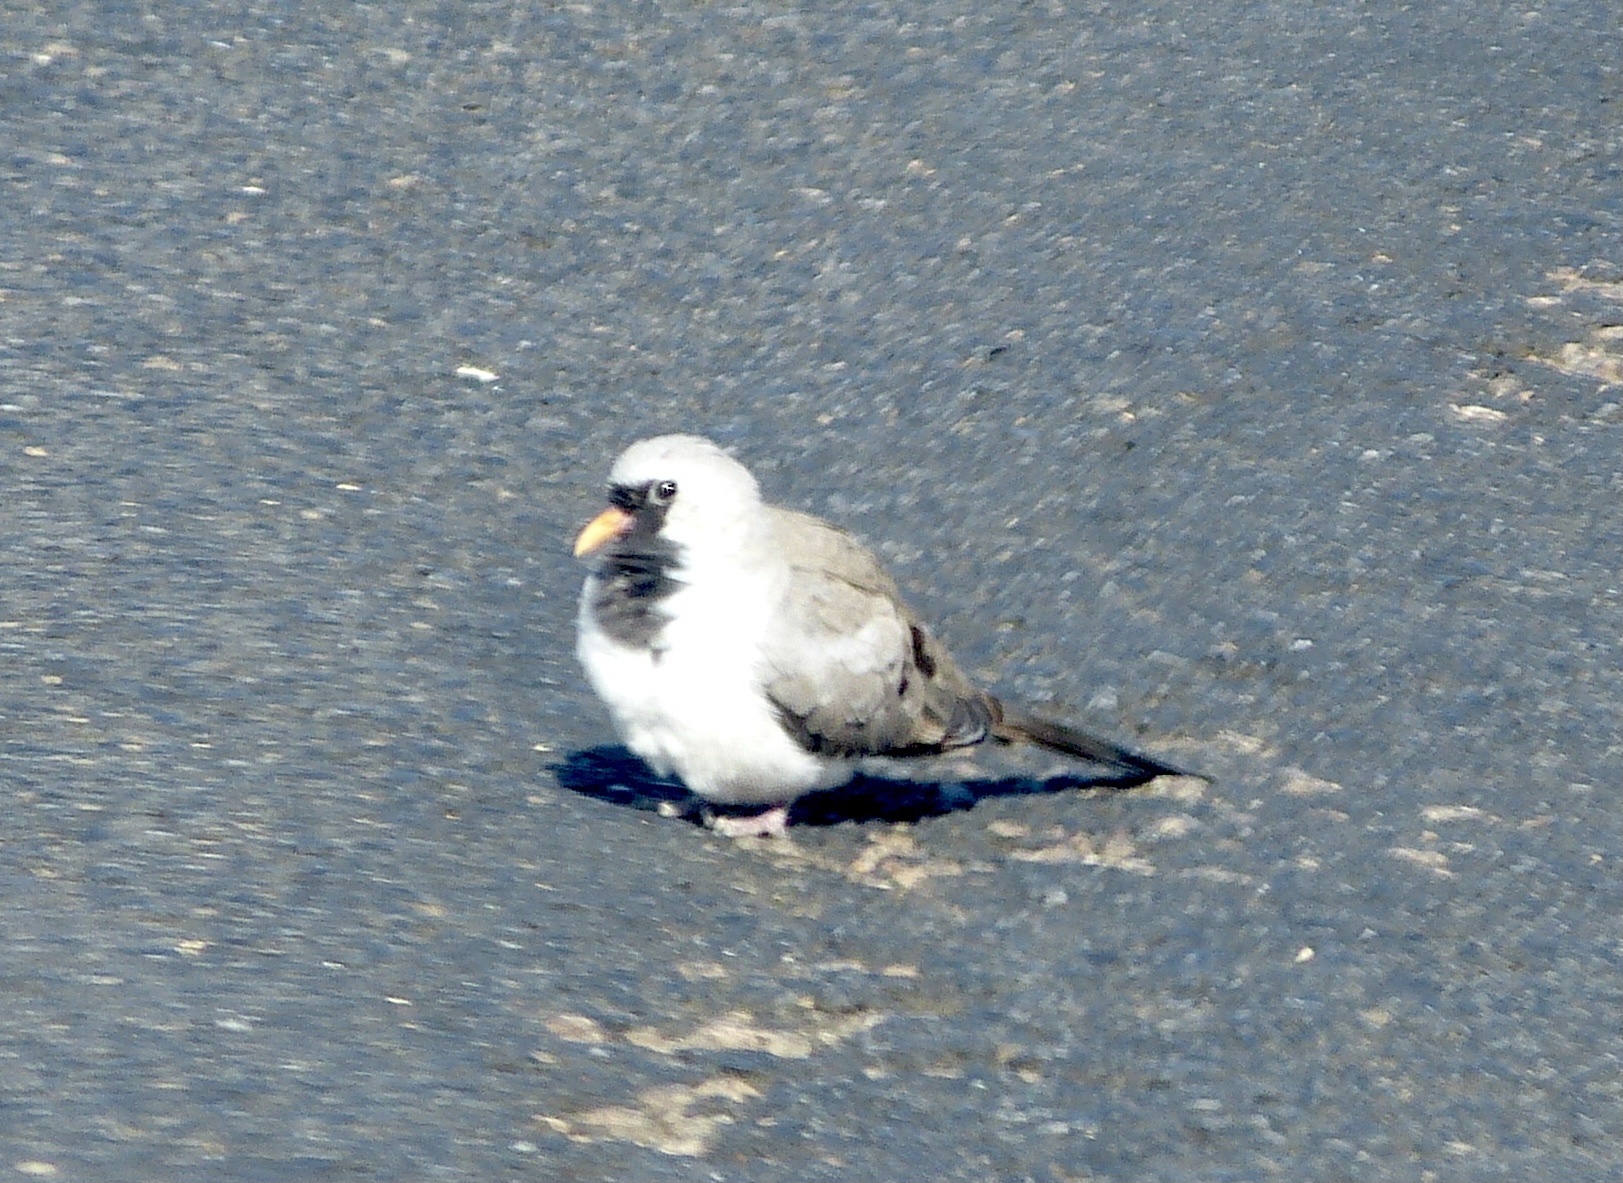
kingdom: Animalia
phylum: Chordata
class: Aves
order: Columbiformes
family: Columbidae
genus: Oena
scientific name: Oena capensis
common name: Namaqua dove
